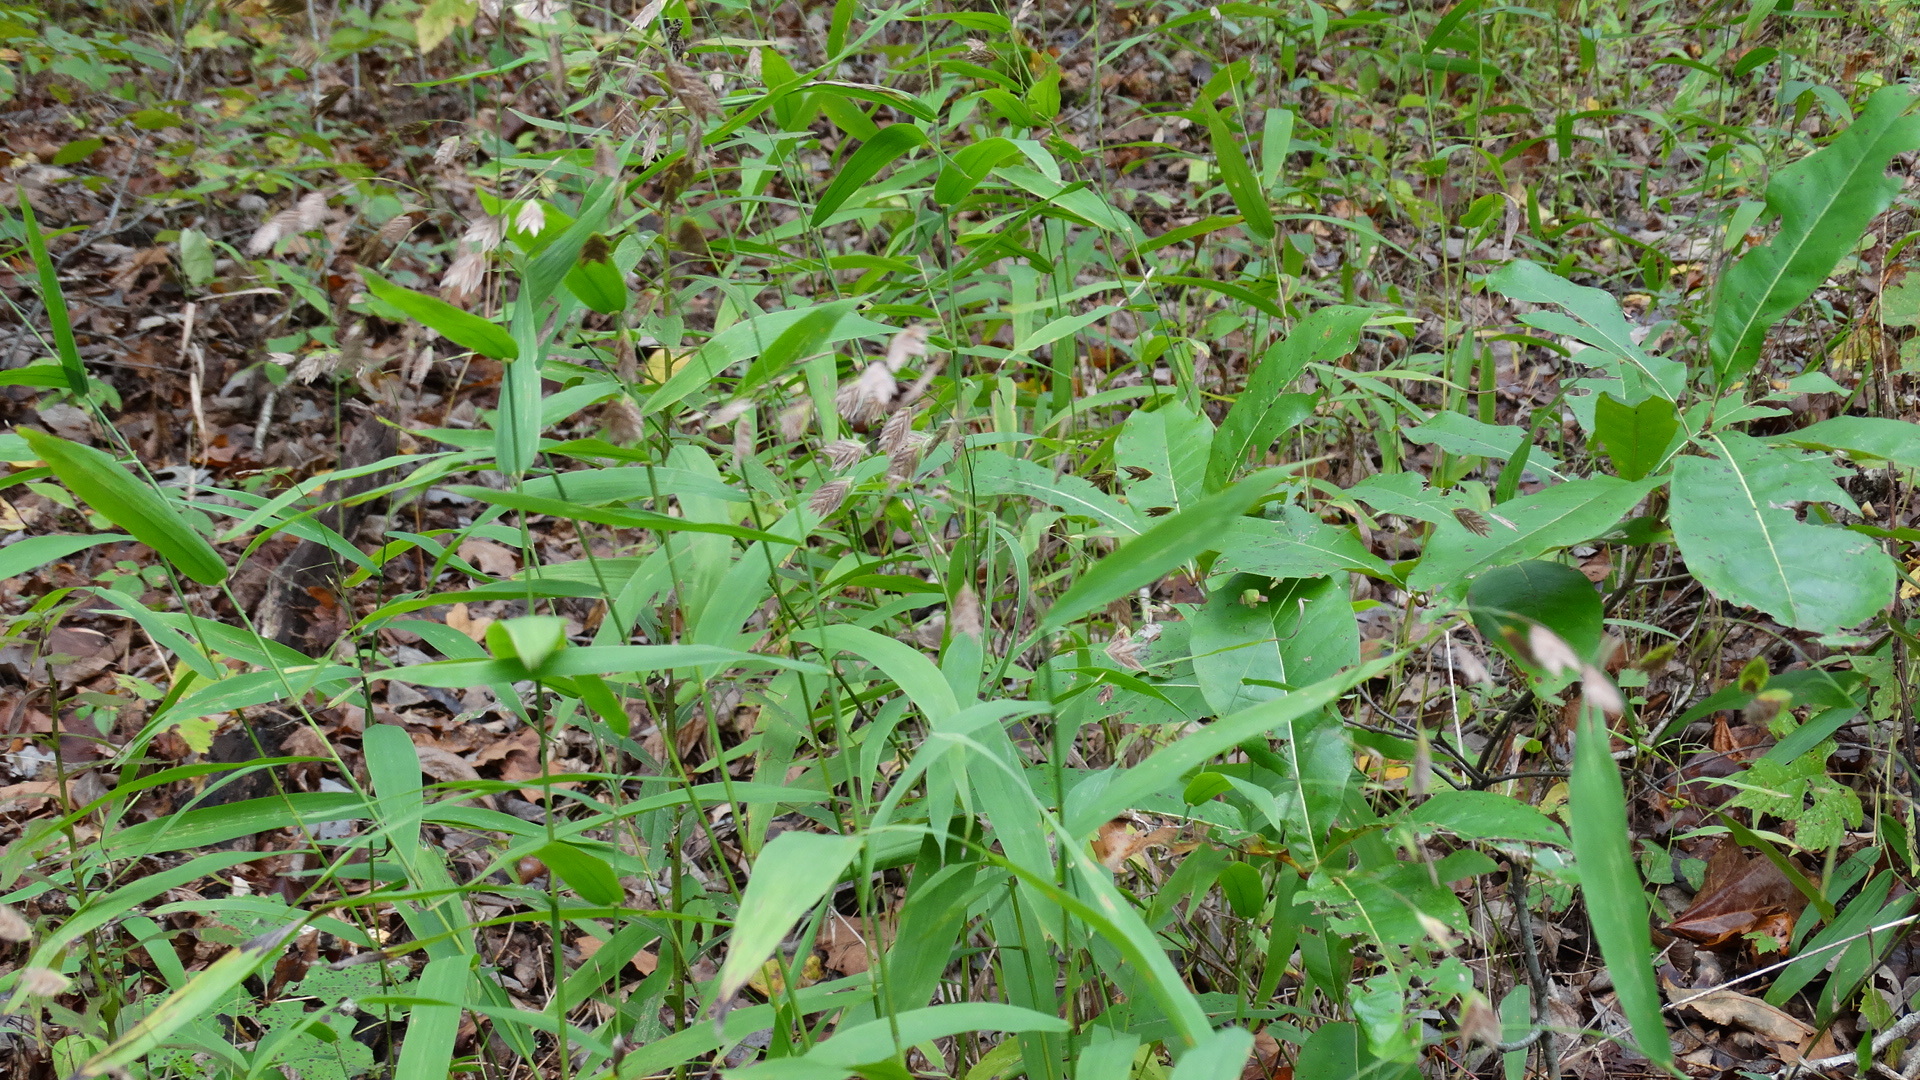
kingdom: Plantae
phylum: Tracheophyta
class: Liliopsida
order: Poales
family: Poaceae
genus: Chasmanthium
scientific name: Chasmanthium latifolium
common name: Broad-leaved chasmanthium
